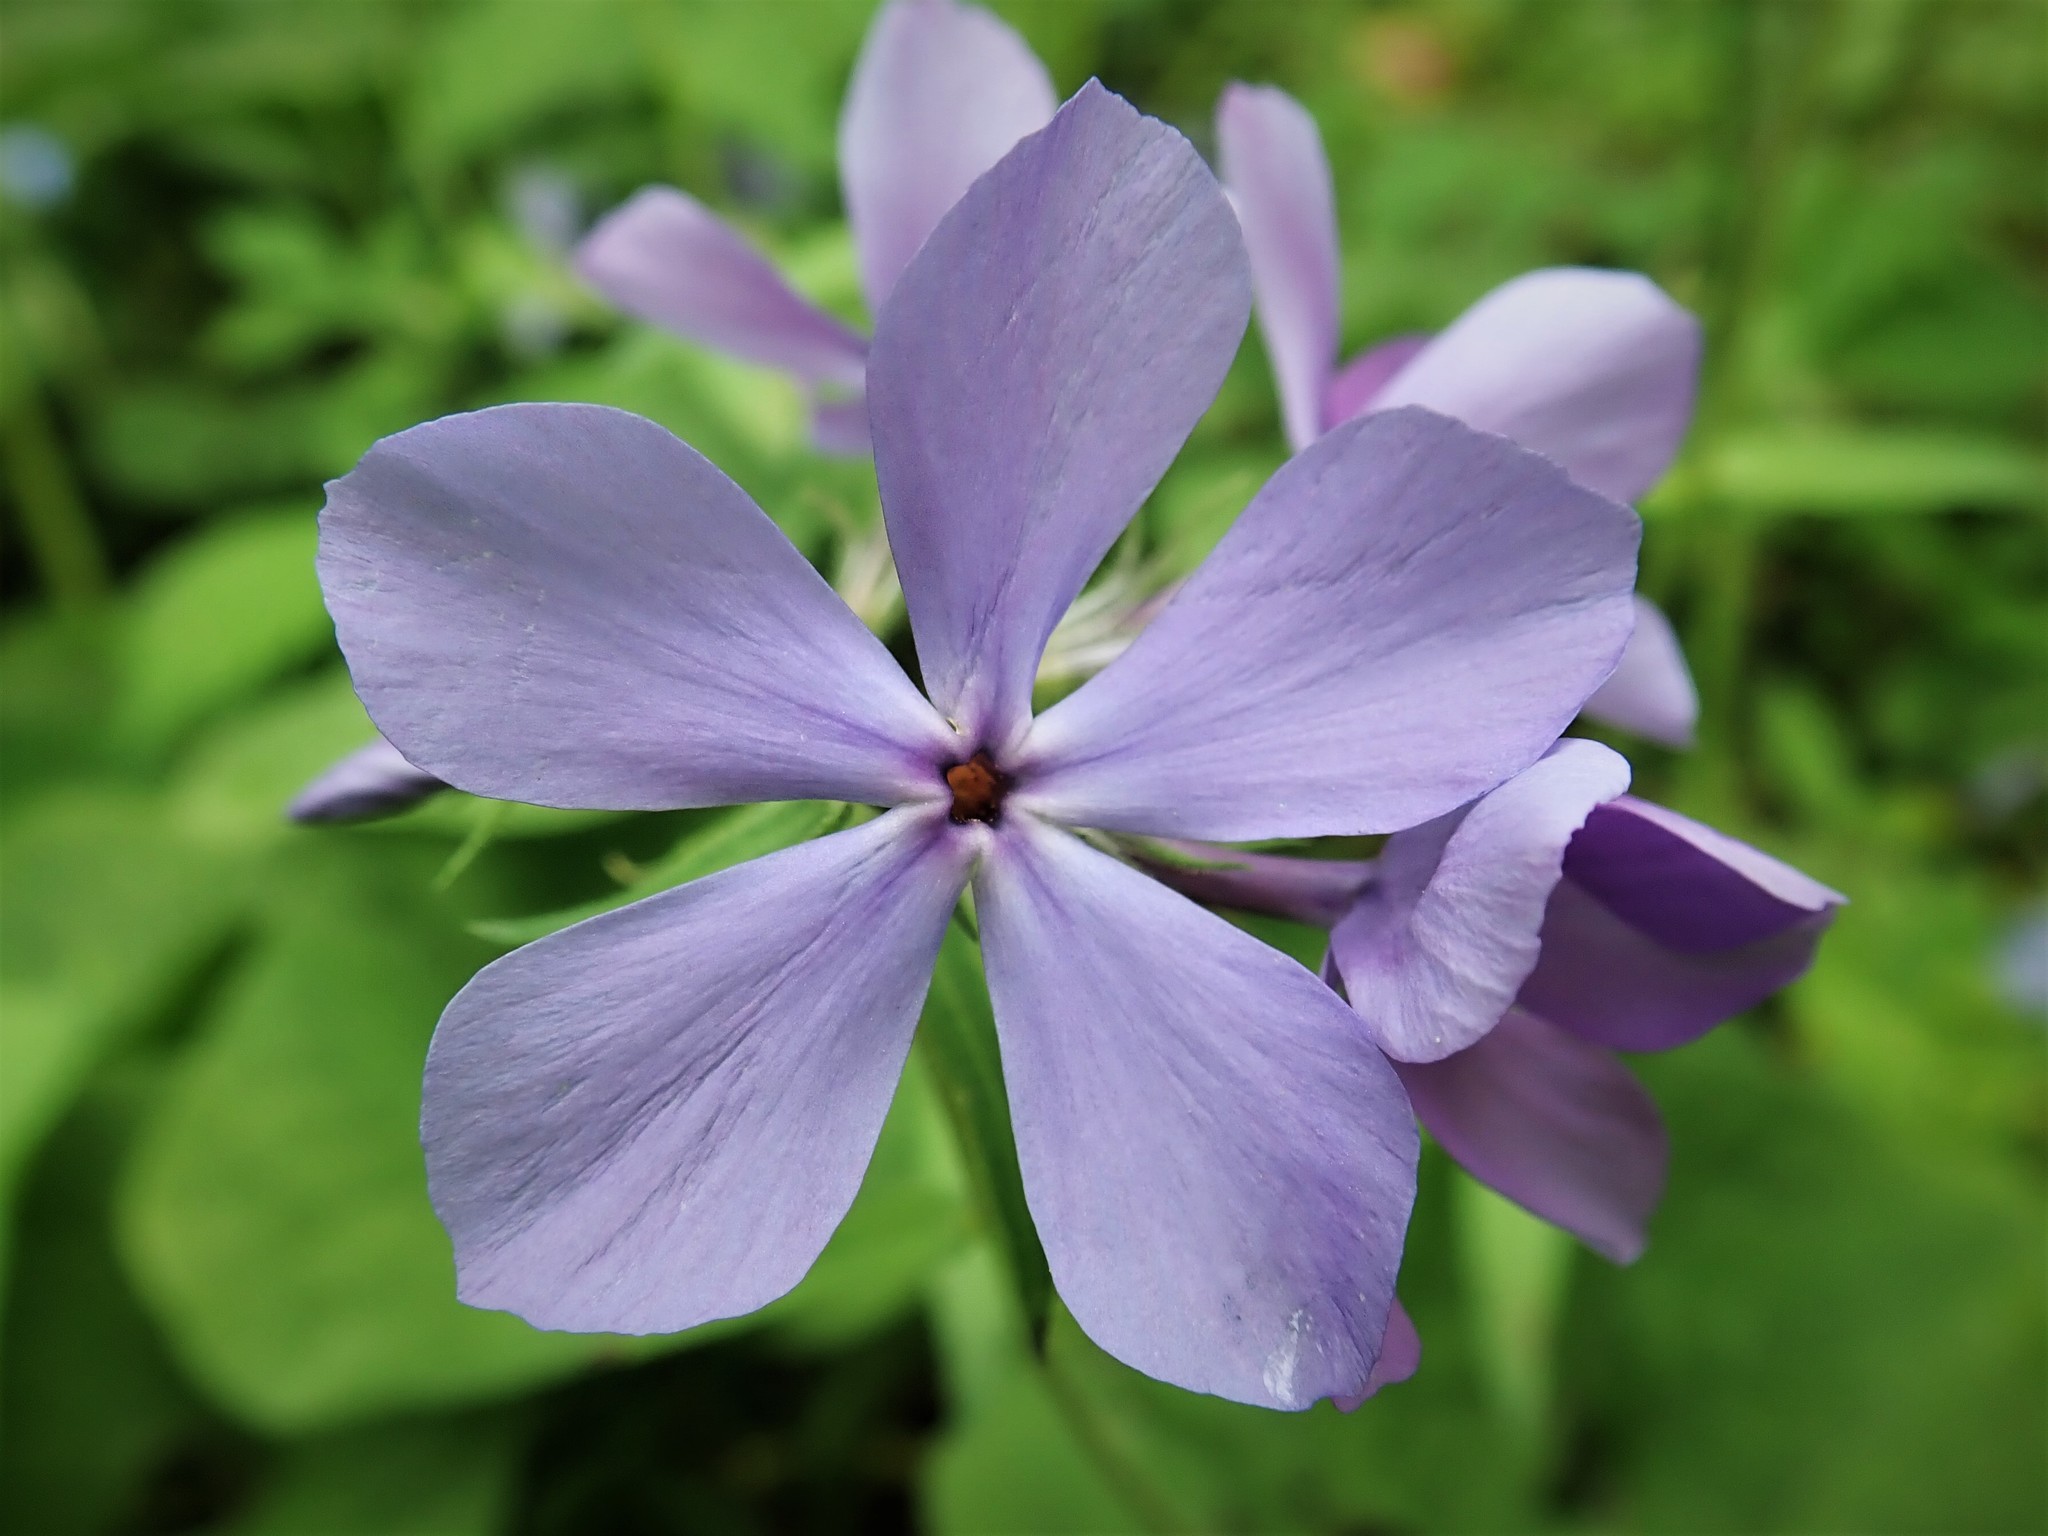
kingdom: Plantae
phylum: Tracheophyta
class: Magnoliopsida
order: Ericales
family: Polemoniaceae
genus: Phlox
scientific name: Phlox divaricata
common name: Blue phlox
